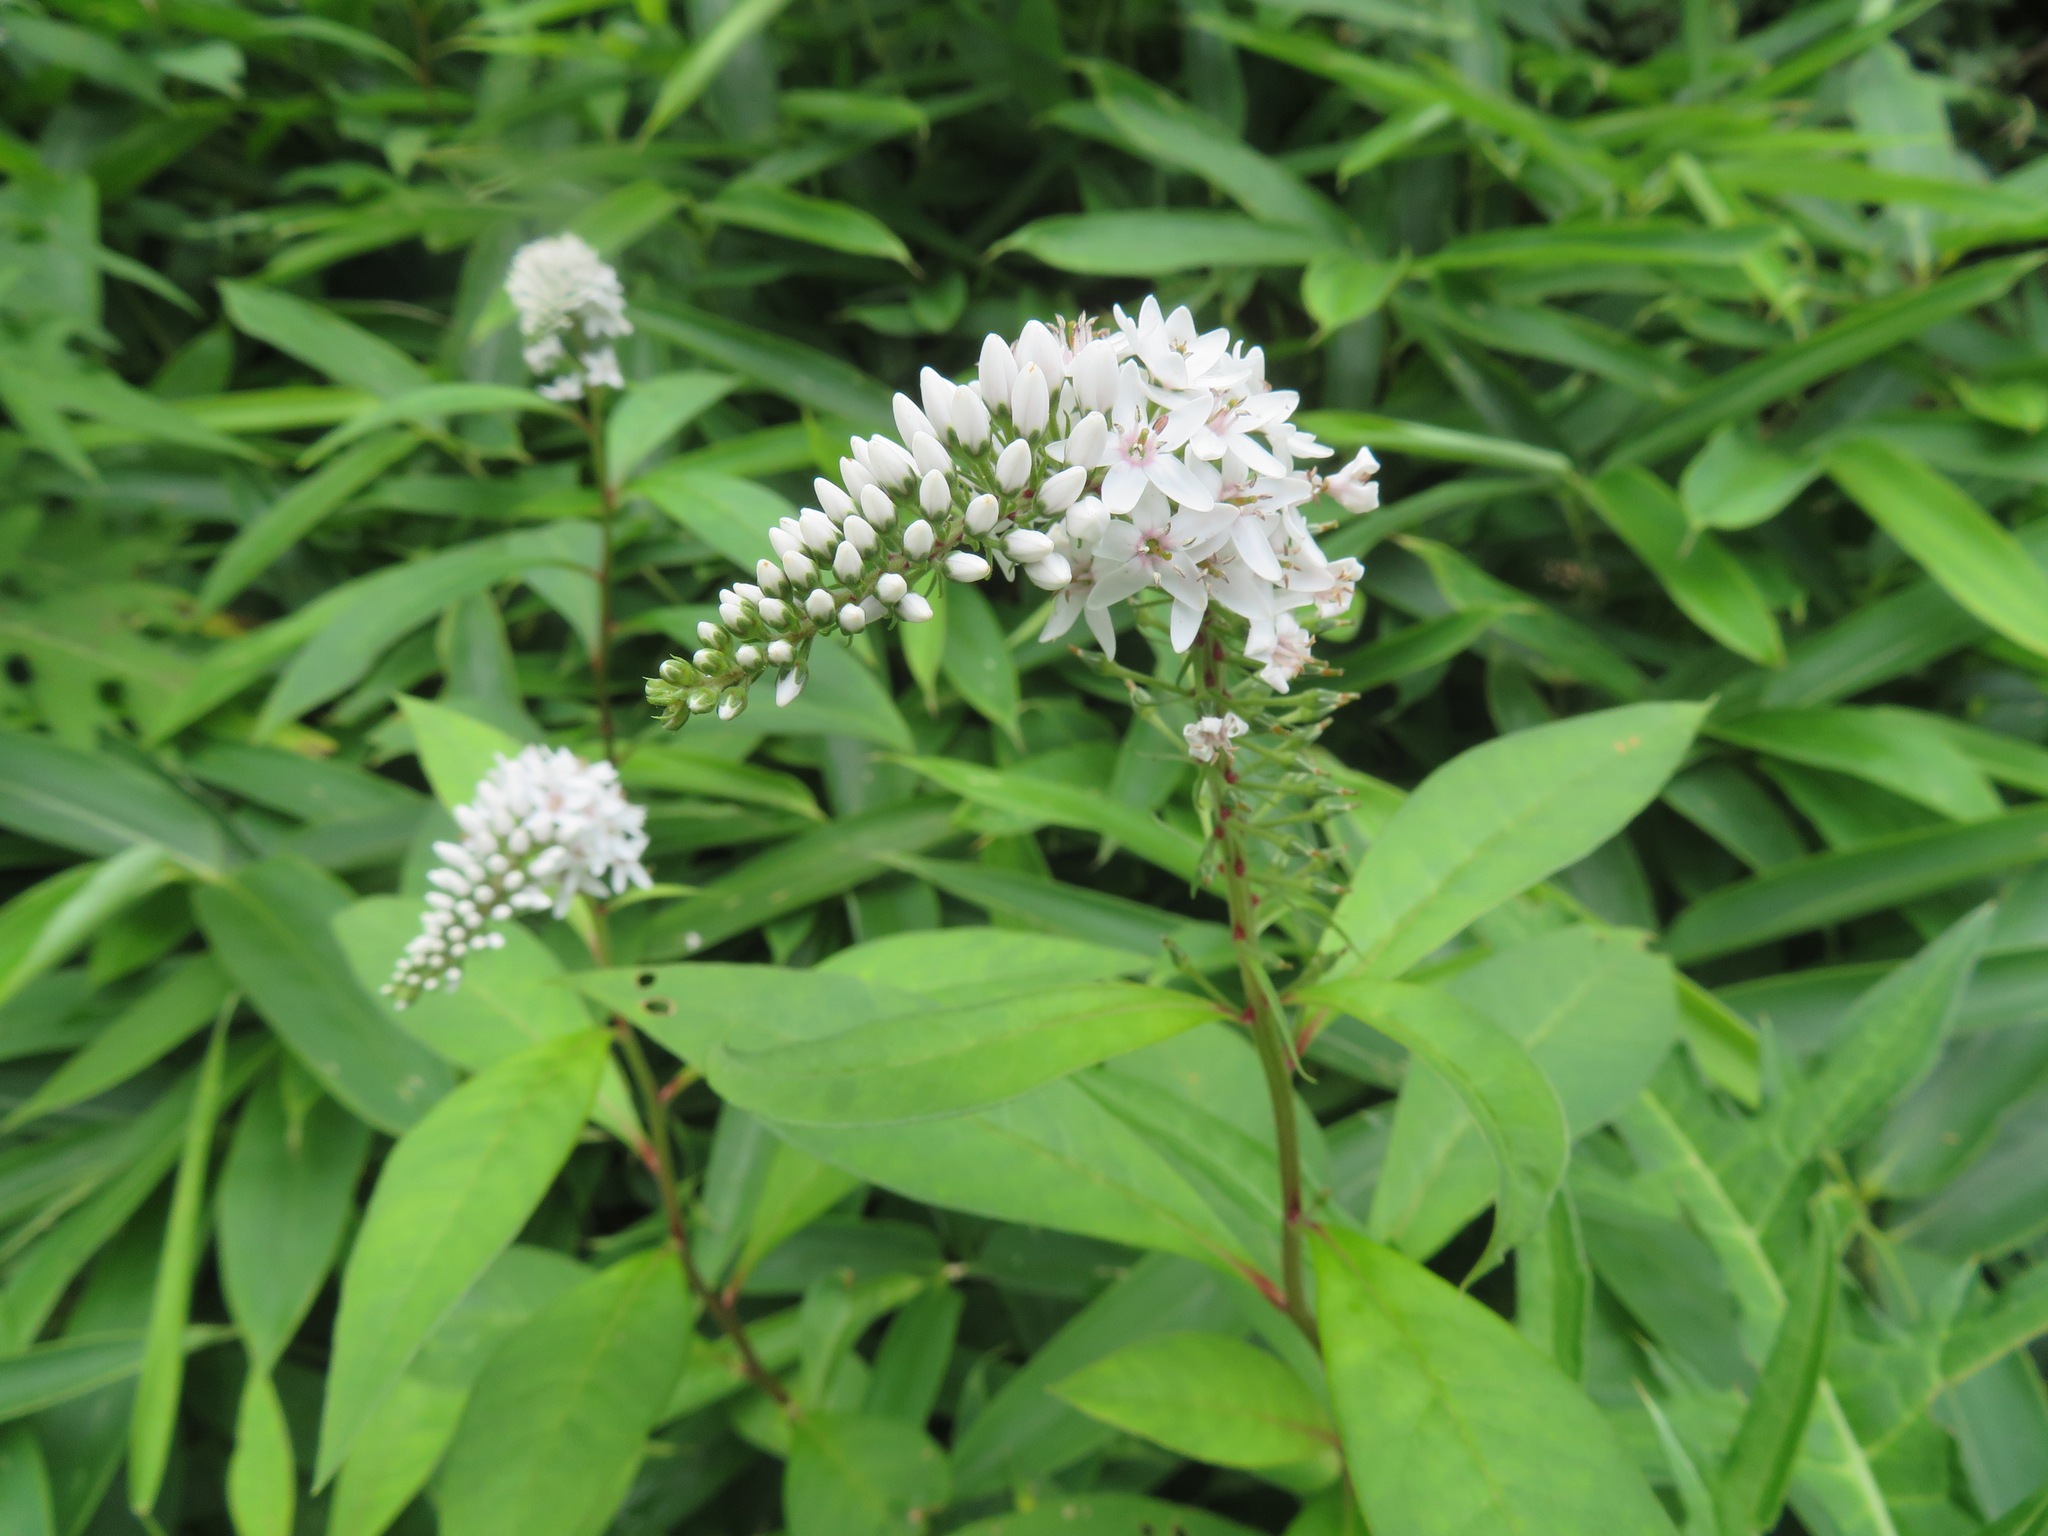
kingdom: Plantae
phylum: Tracheophyta
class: Magnoliopsida
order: Ericales
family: Primulaceae
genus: Lysimachia
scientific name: Lysimachia clethroides
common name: Gooseneck loosestrife
